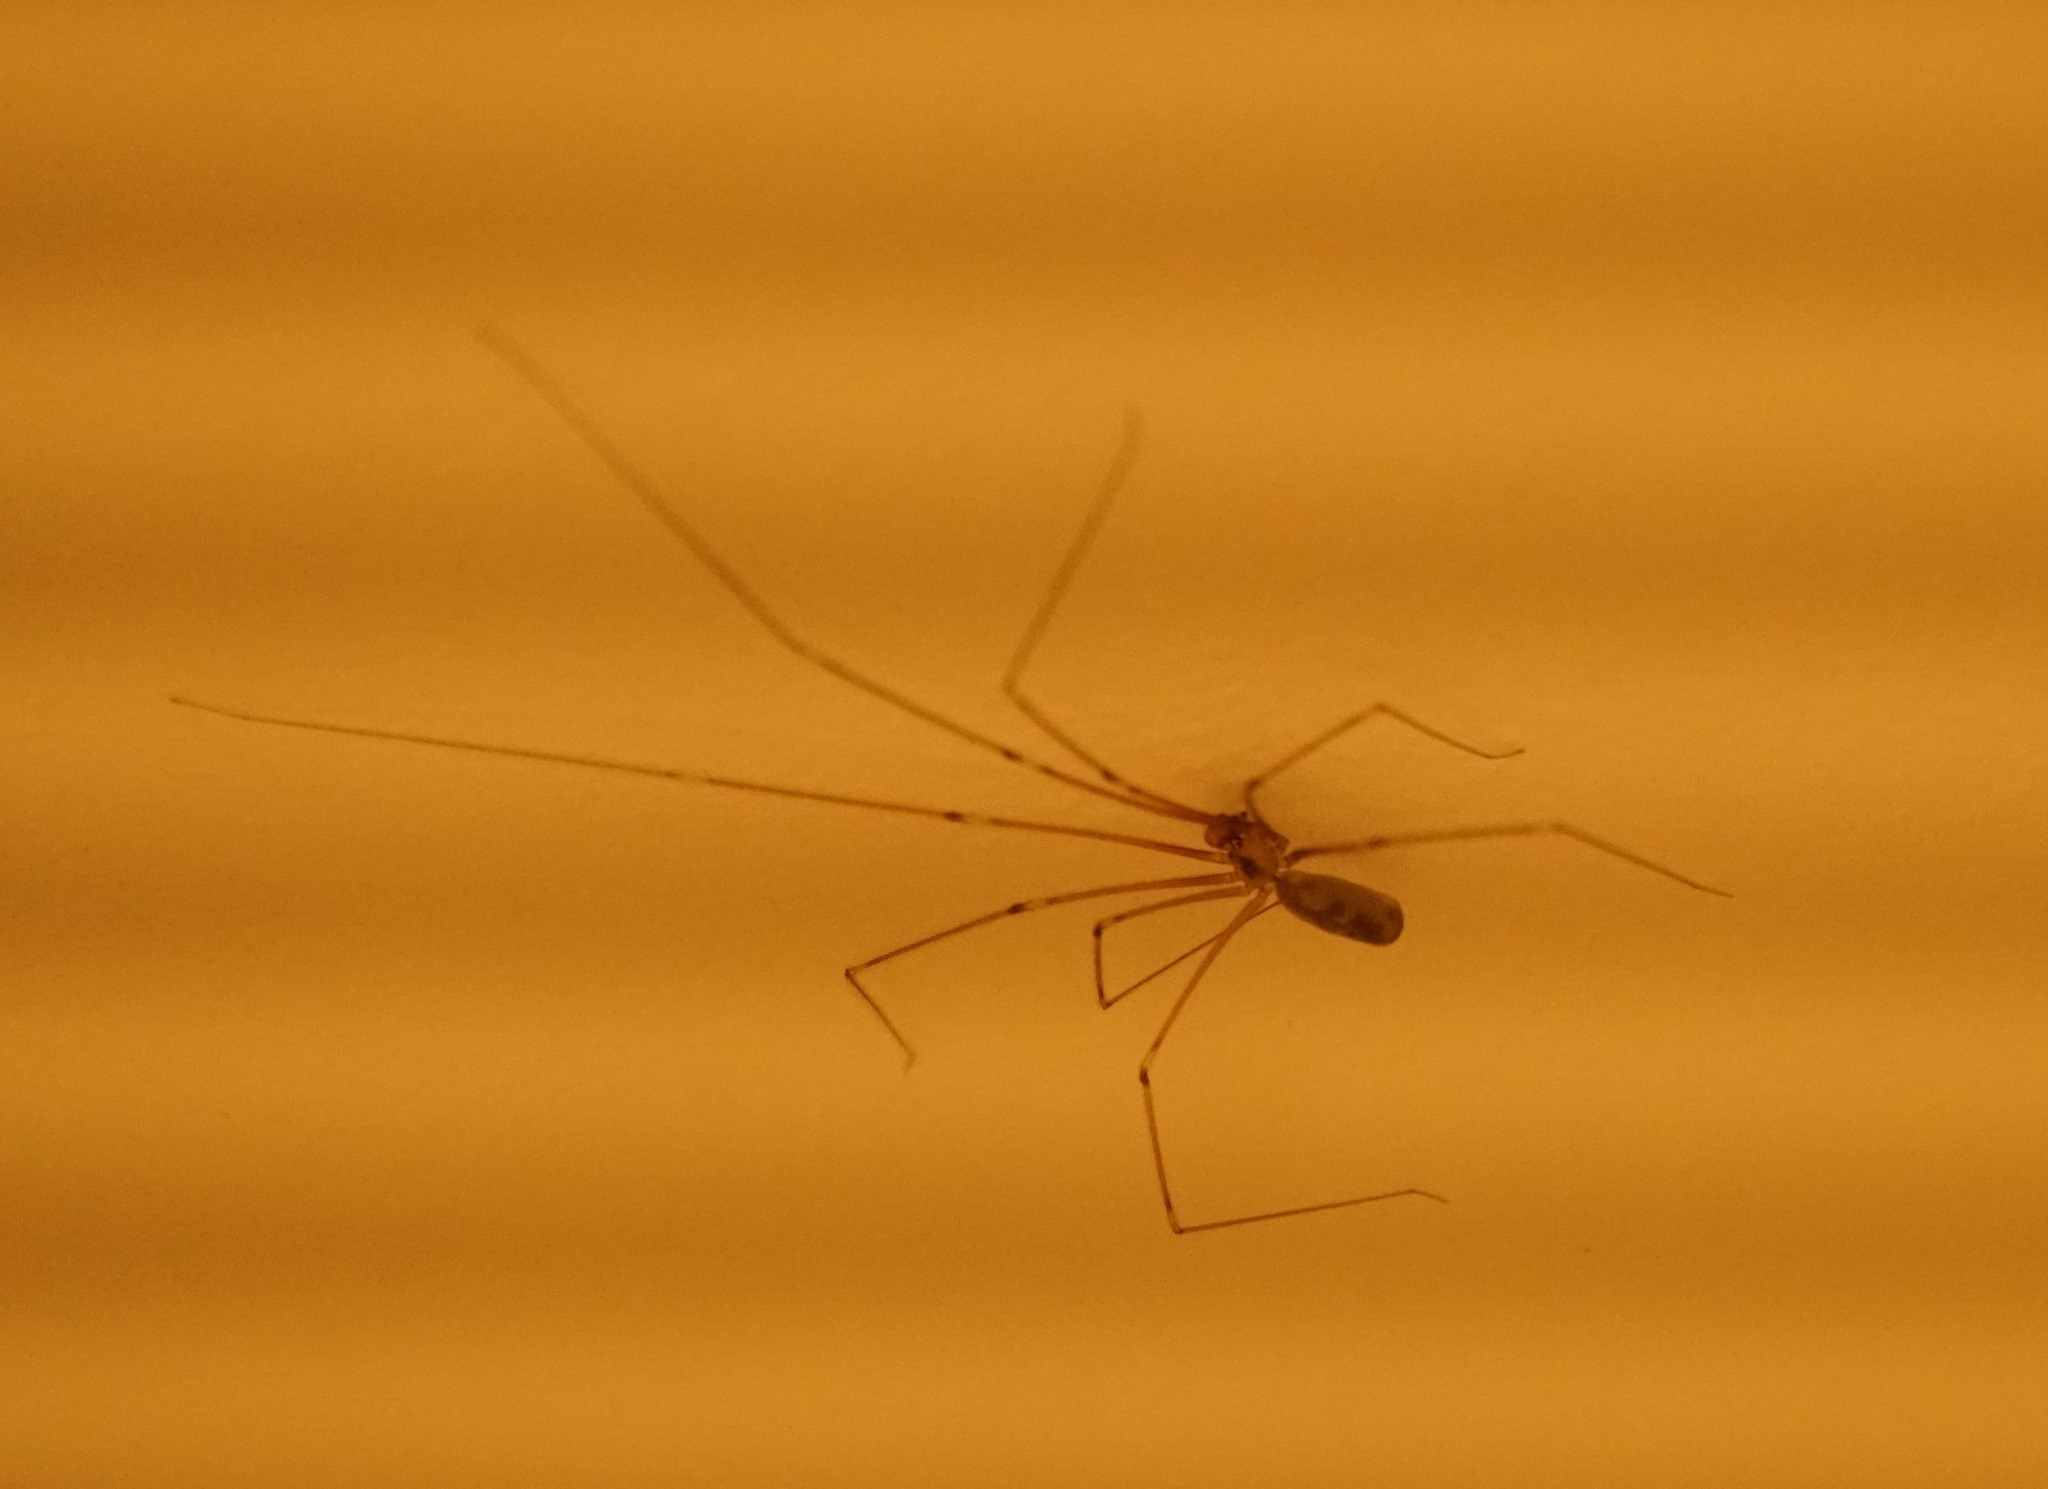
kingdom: Animalia
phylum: Arthropoda
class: Arachnida
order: Araneae
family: Pholcidae
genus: Pholcus
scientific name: Pholcus phalangioides
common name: Longbodied cellar spider
